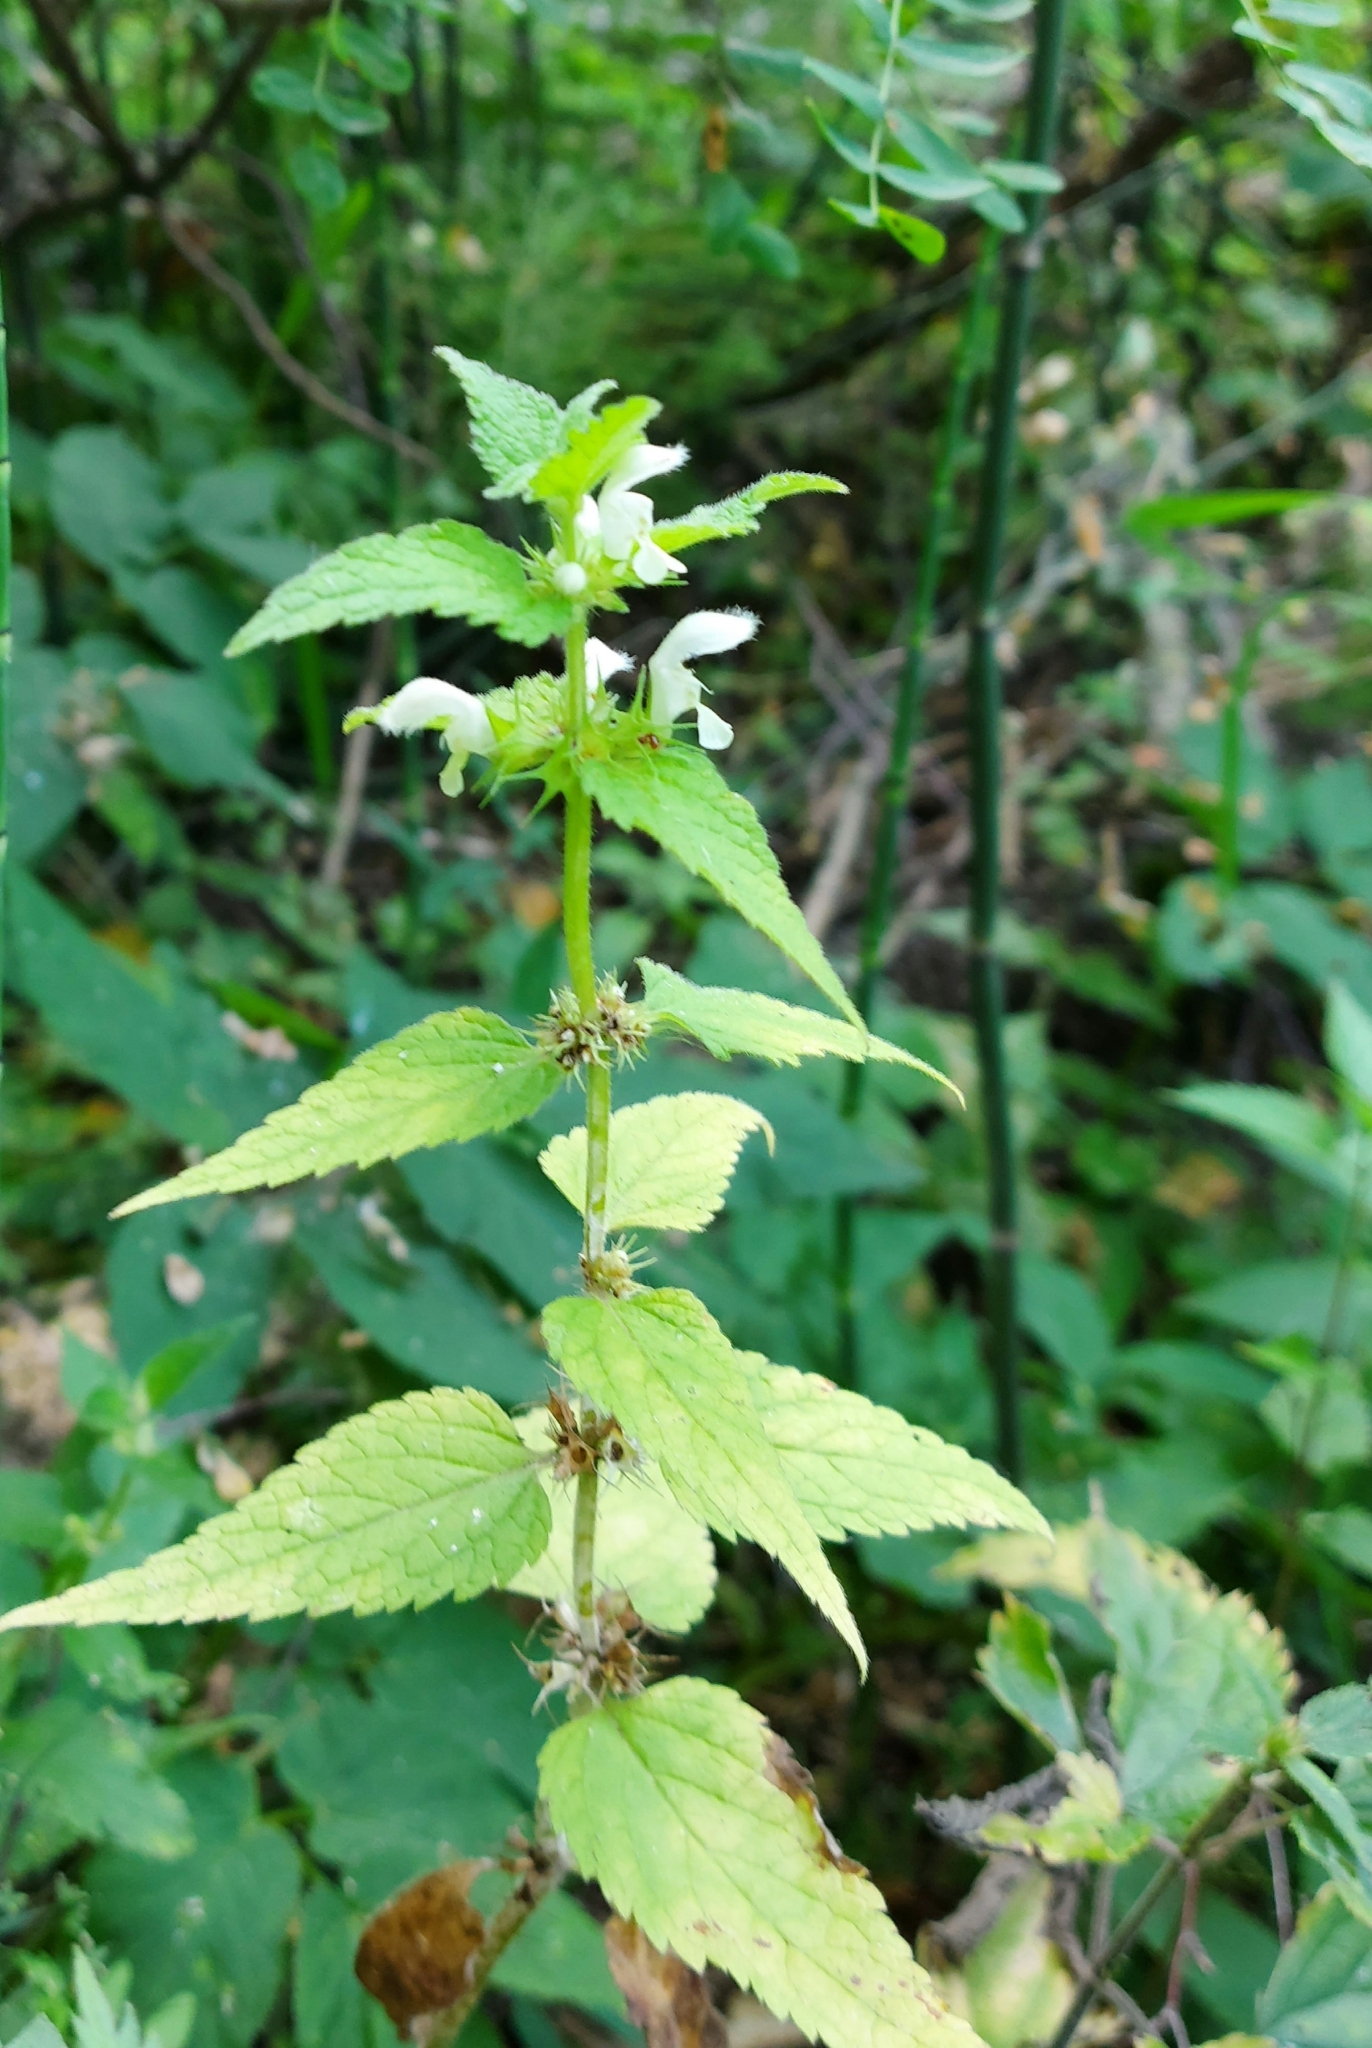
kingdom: Plantae
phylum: Tracheophyta
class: Magnoliopsida
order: Lamiales
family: Lamiaceae
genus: Lamium
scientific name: Lamium album
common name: White dead-nettle
